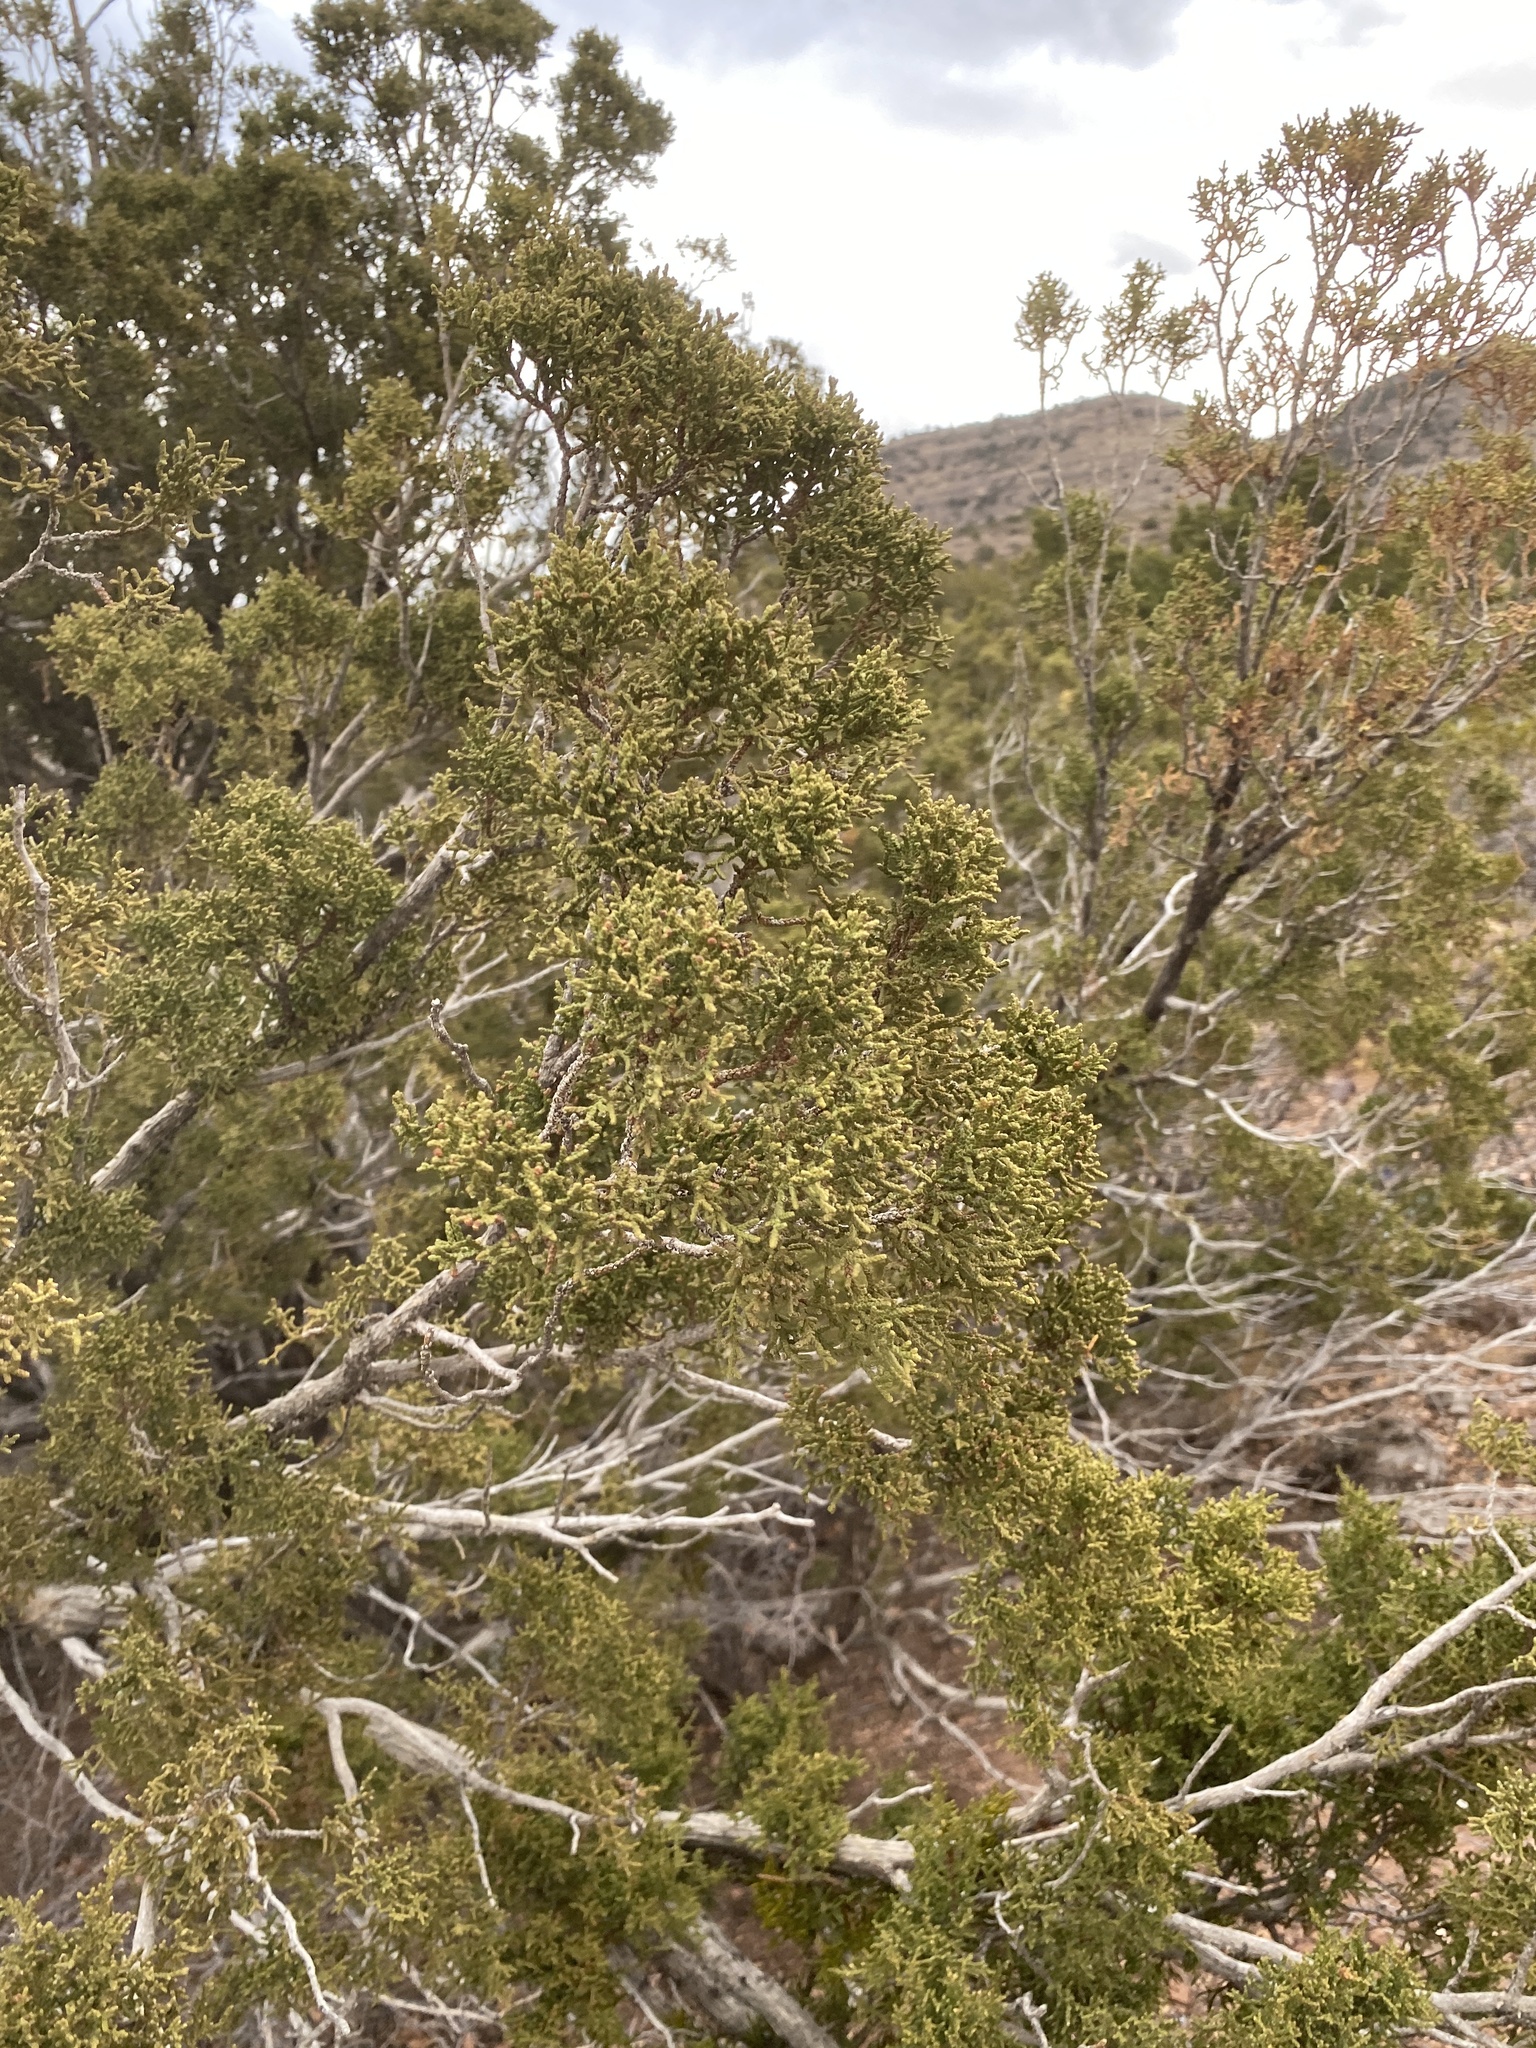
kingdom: Plantae
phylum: Tracheophyta
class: Pinopsida
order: Pinales
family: Cupressaceae
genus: Juniperus
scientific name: Juniperus monosperma
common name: One-seed juniper
